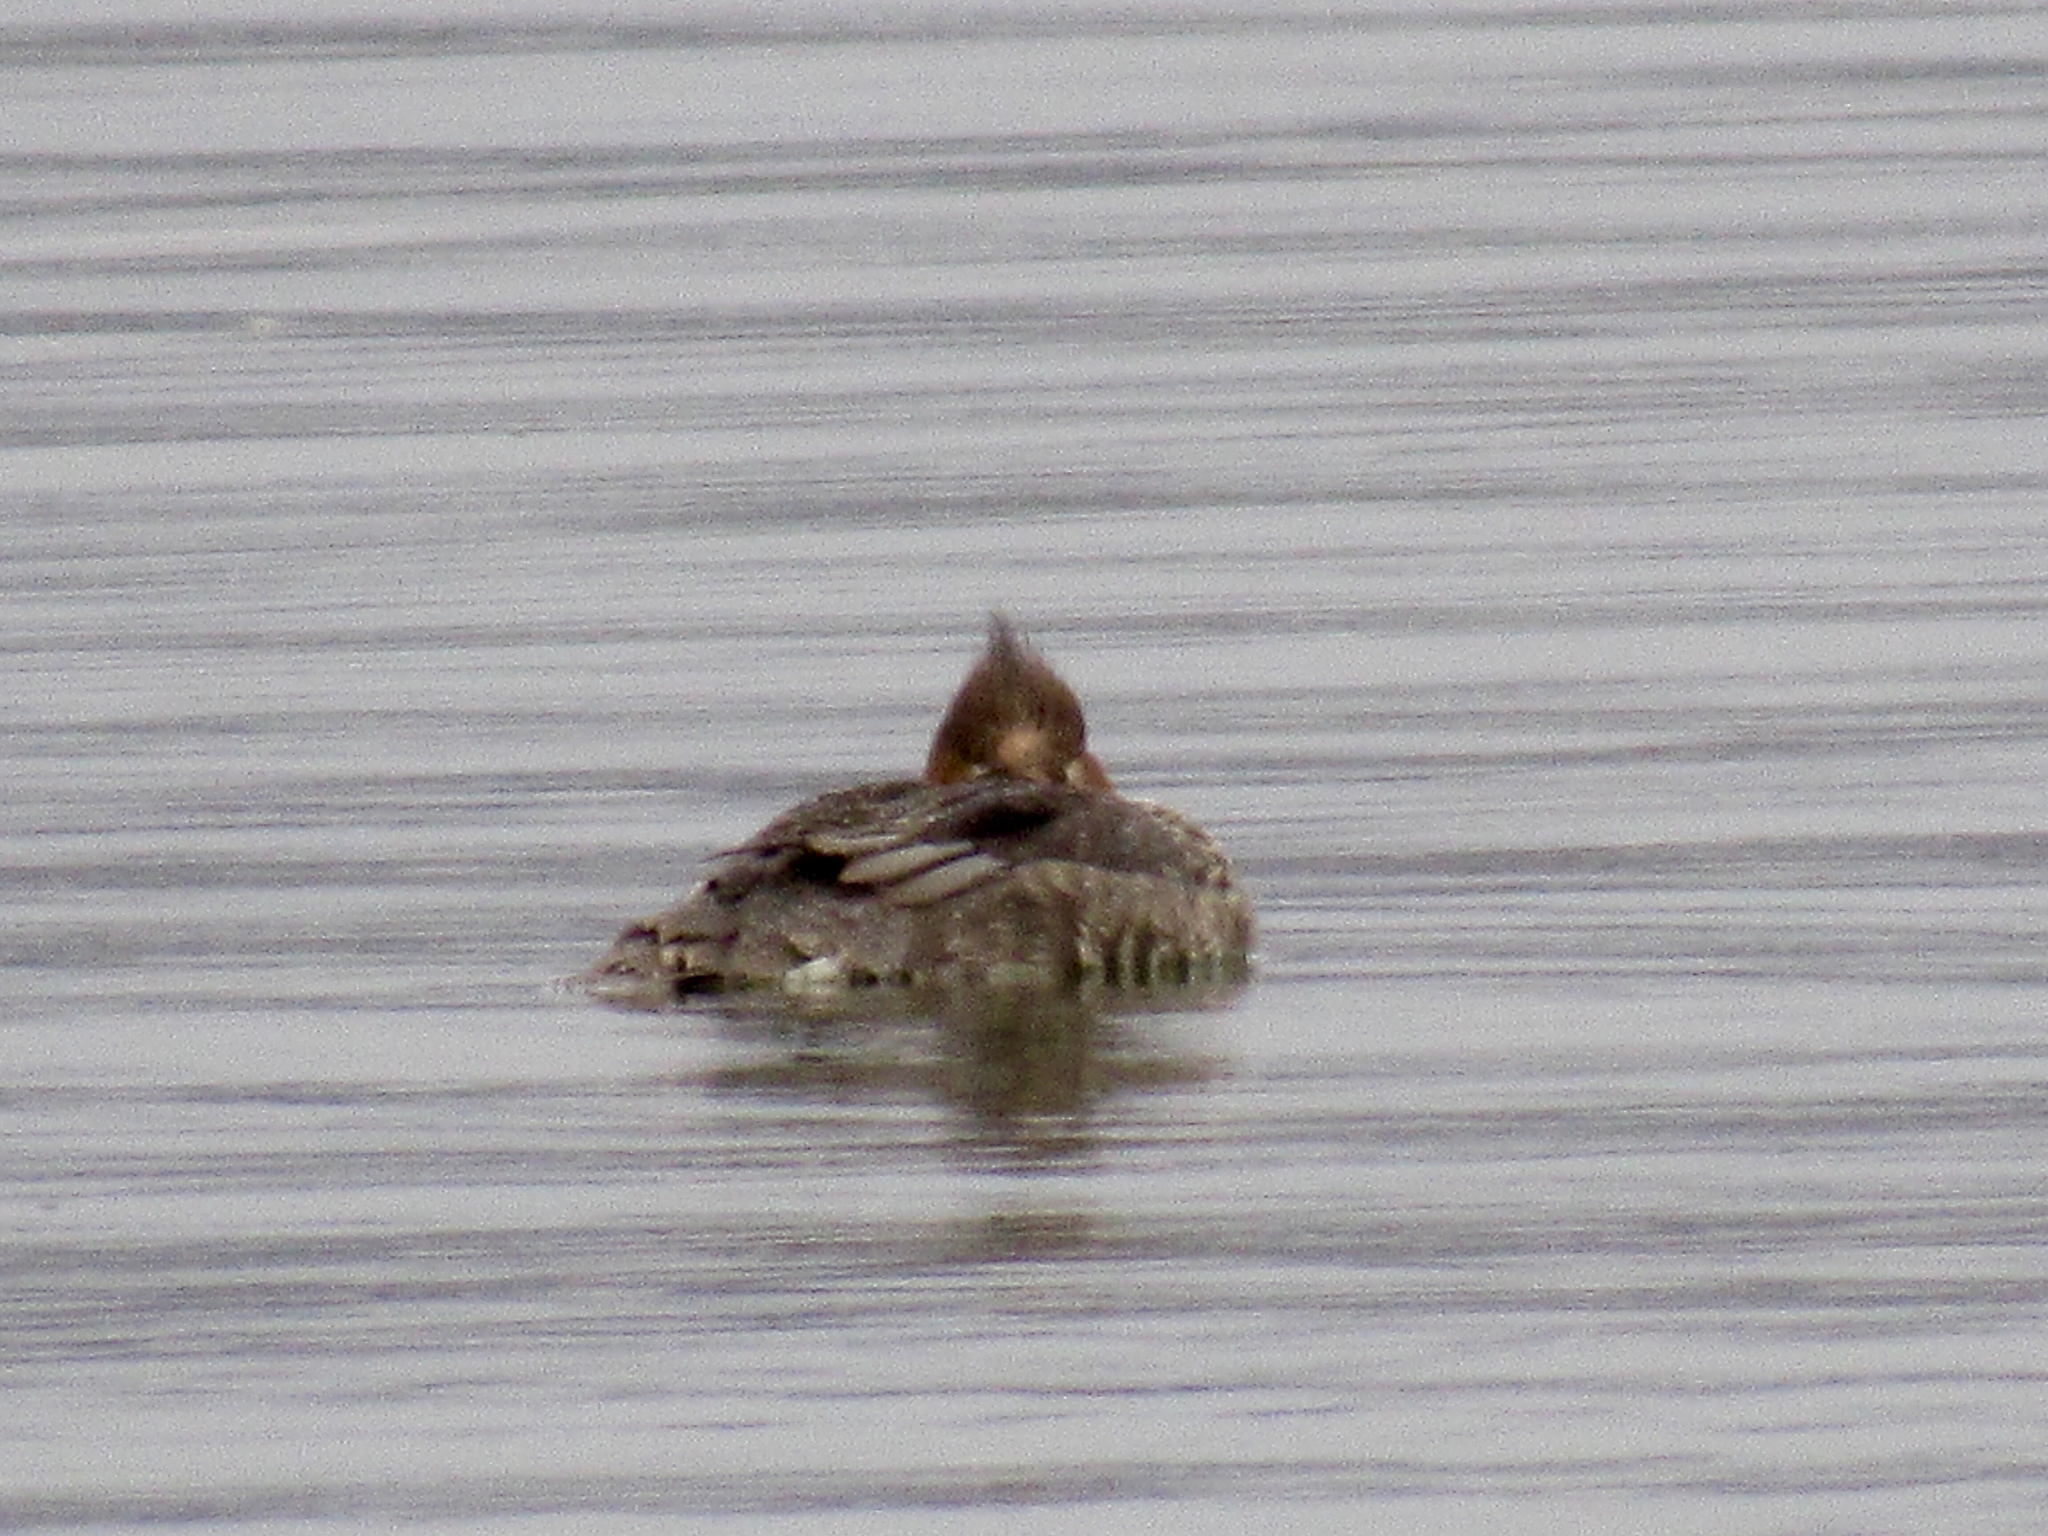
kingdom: Animalia
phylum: Chordata
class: Aves
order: Anseriformes
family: Anatidae
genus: Mergus
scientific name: Mergus merganser
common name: Common merganser
